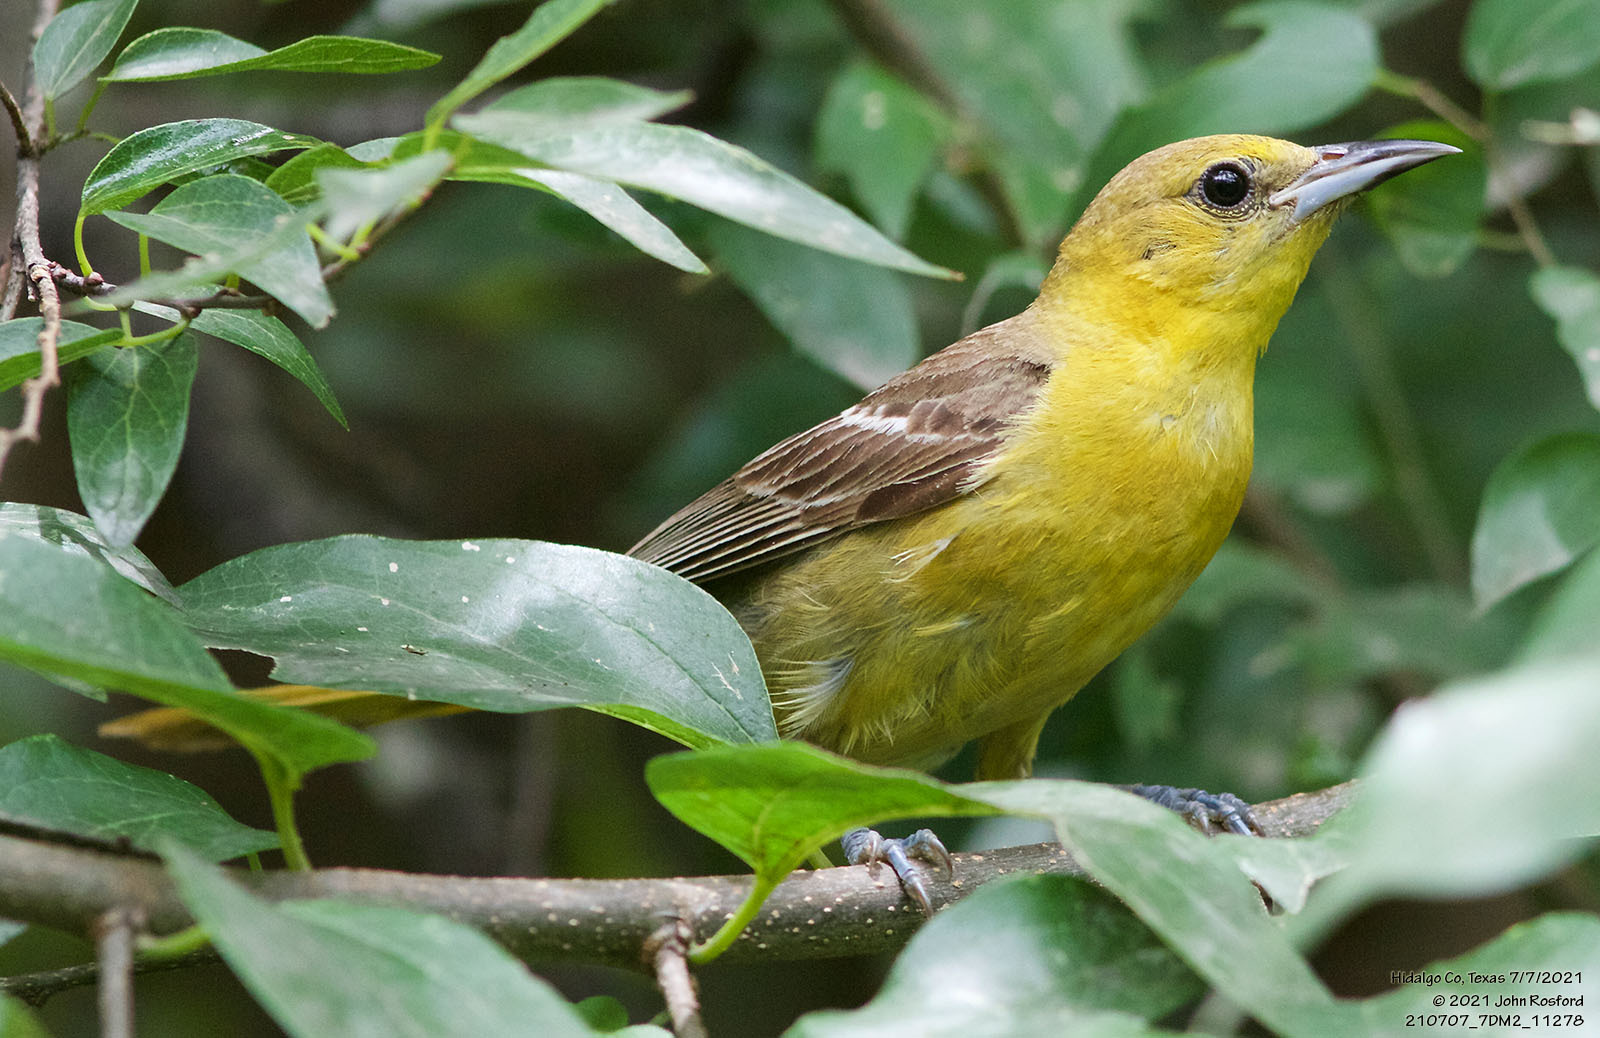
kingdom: Animalia
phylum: Chordata
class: Aves
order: Passeriformes
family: Icteridae
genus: Icterus
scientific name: Icterus cucullatus
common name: Hooded oriole
